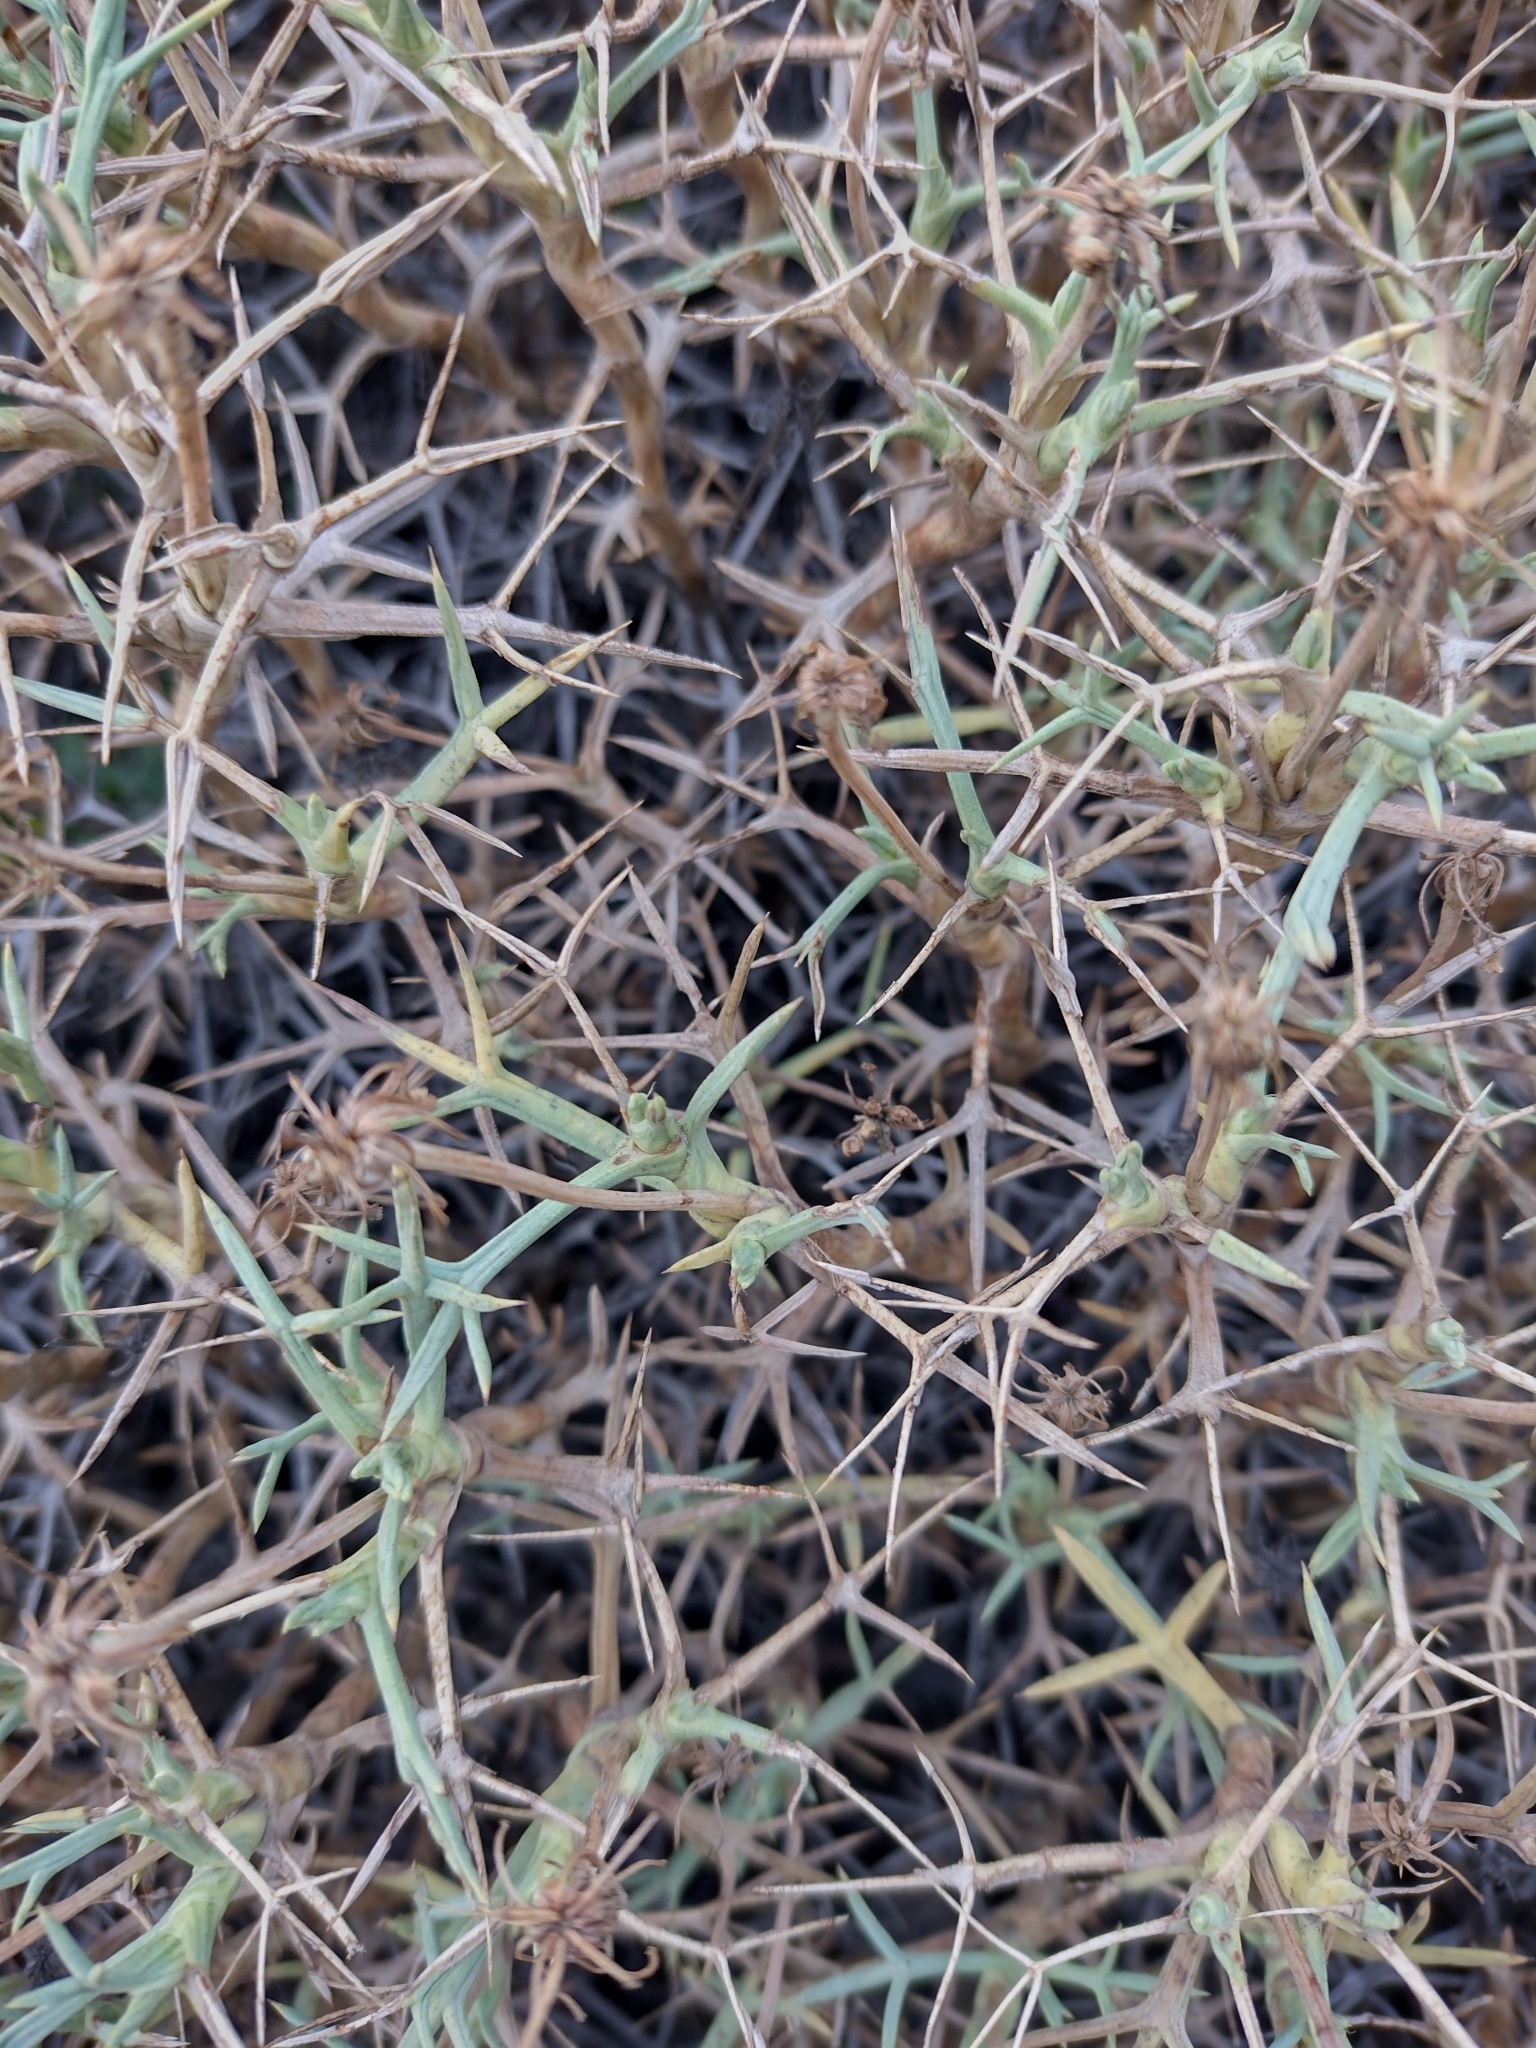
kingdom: Plantae
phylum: Tracheophyta
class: Magnoliopsida
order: Apiales
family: Apiaceae
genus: Azorella
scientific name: Azorella prolifera
